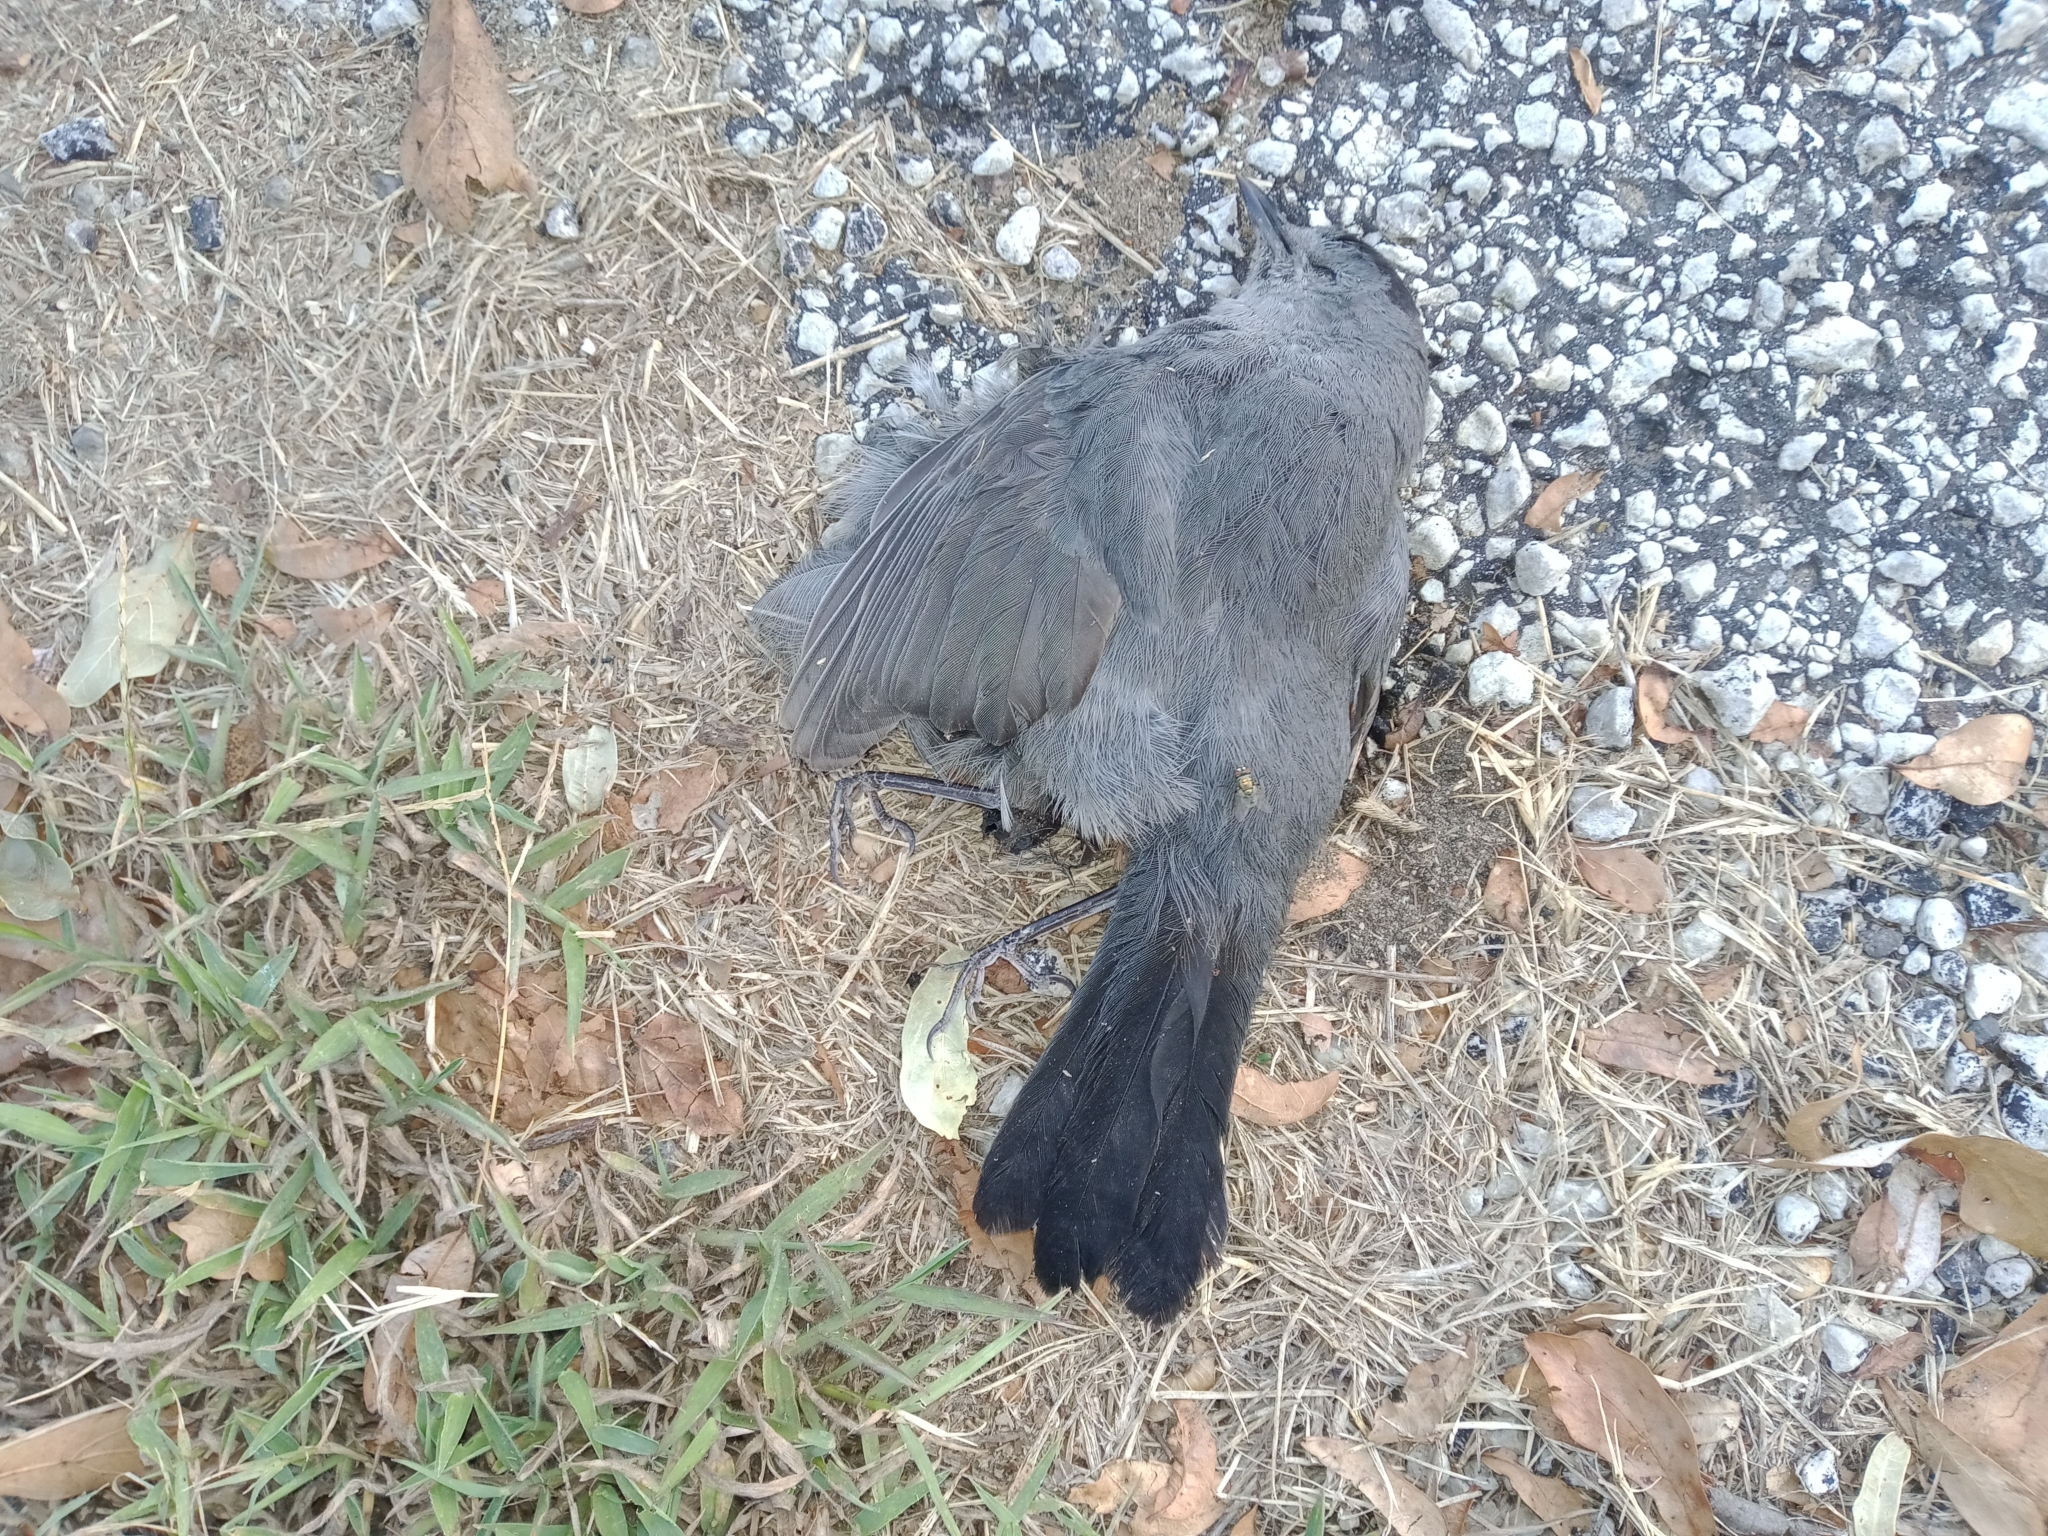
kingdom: Animalia
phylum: Chordata
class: Aves
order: Passeriformes
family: Mimidae
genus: Dumetella
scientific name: Dumetella carolinensis
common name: Gray catbird
